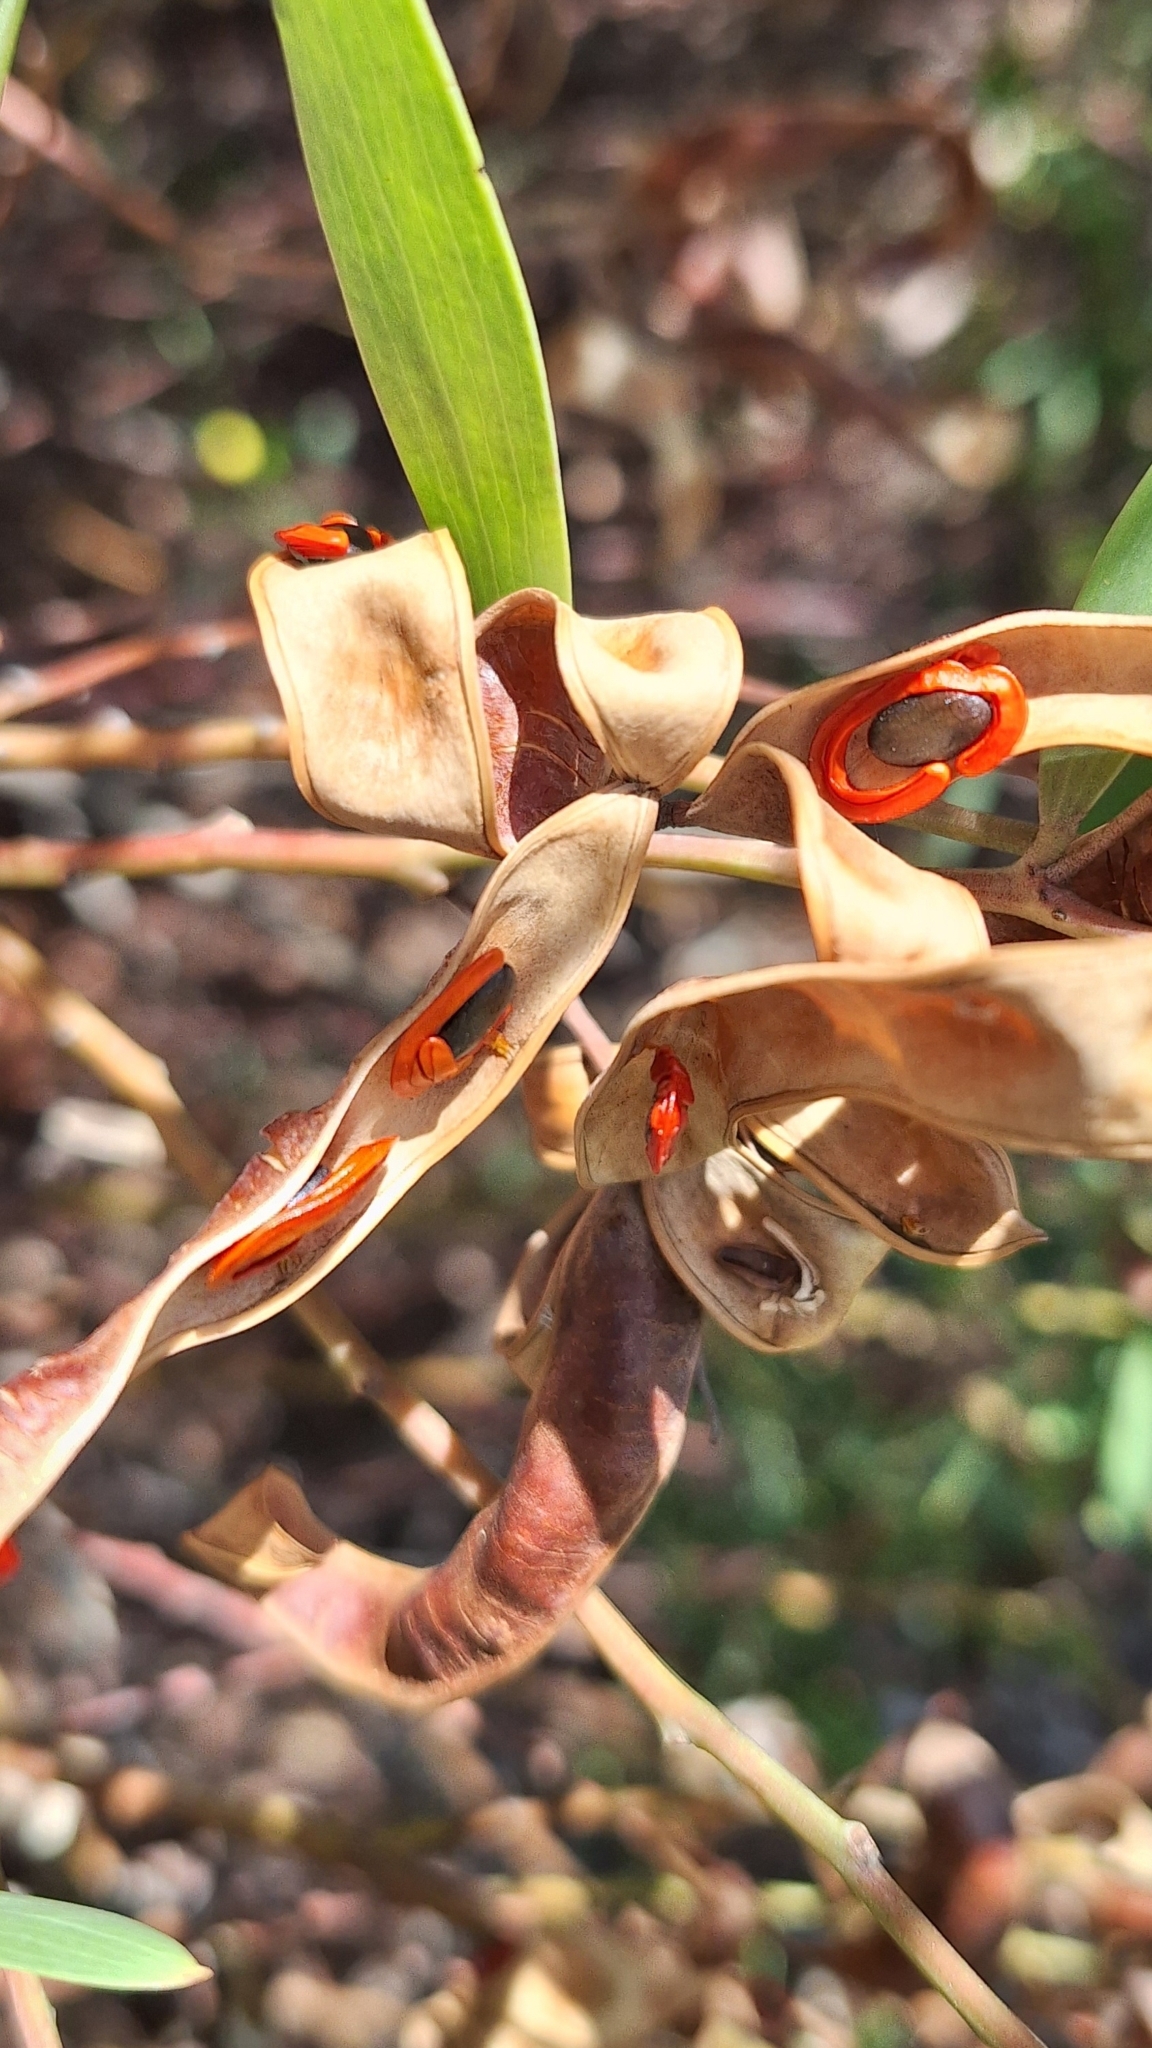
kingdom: Plantae
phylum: Tracheophyta
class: Magnoliopsida
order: Fabales
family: Fabaceae
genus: Acacia
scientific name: Acacia cyclops
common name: Coastal wattle
